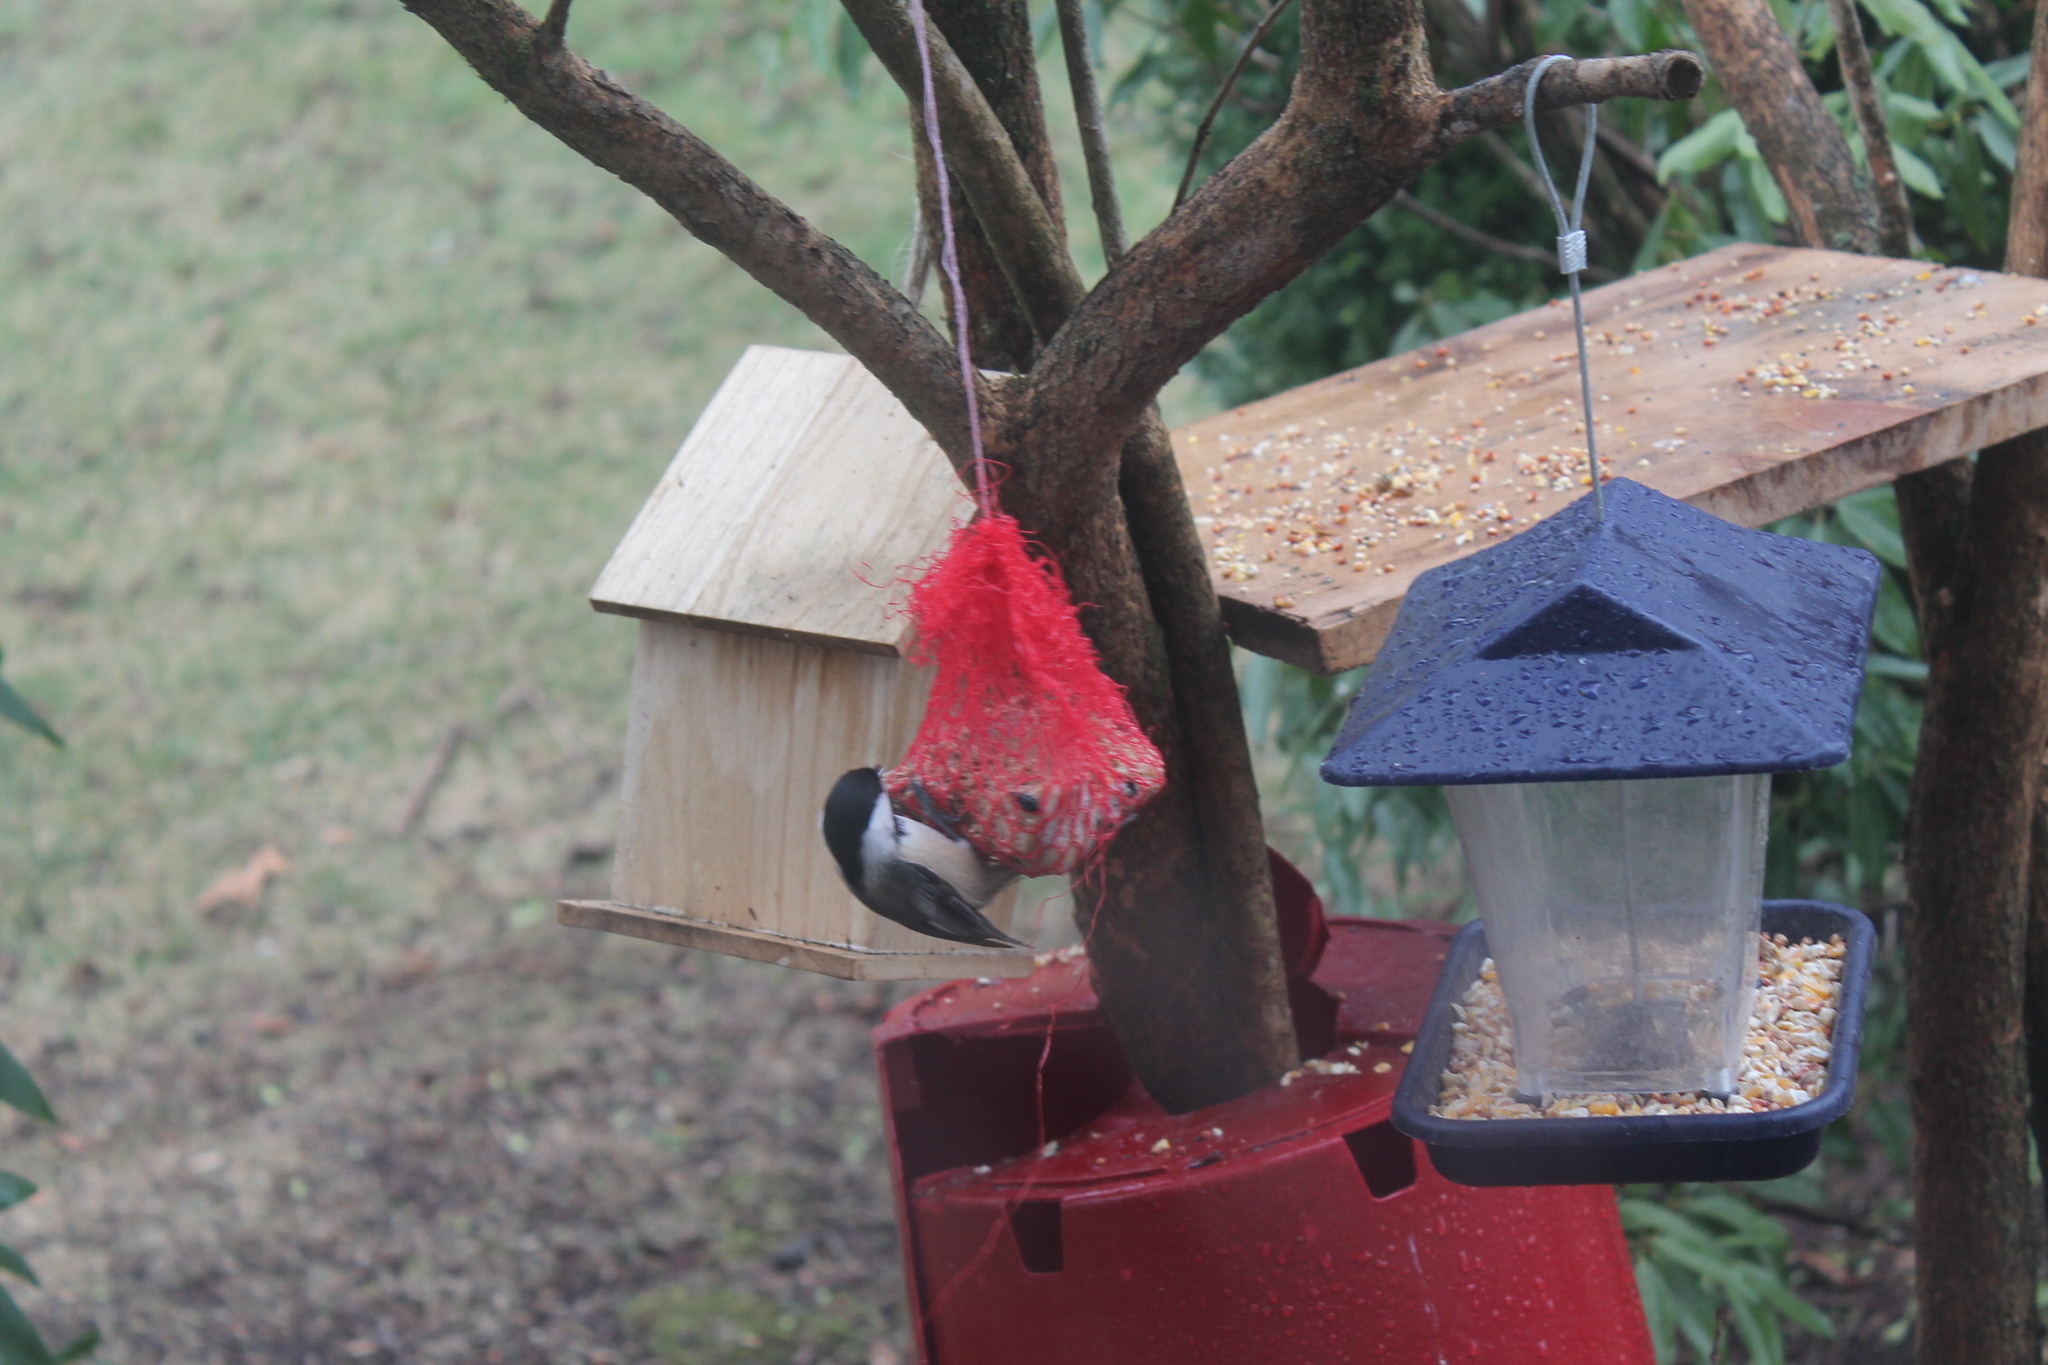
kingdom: Animalia
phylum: Chordata
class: Aves
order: Passeriformes
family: Paridae
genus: Poecile
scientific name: Poecile atricapillus
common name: Black-capped chickadee
